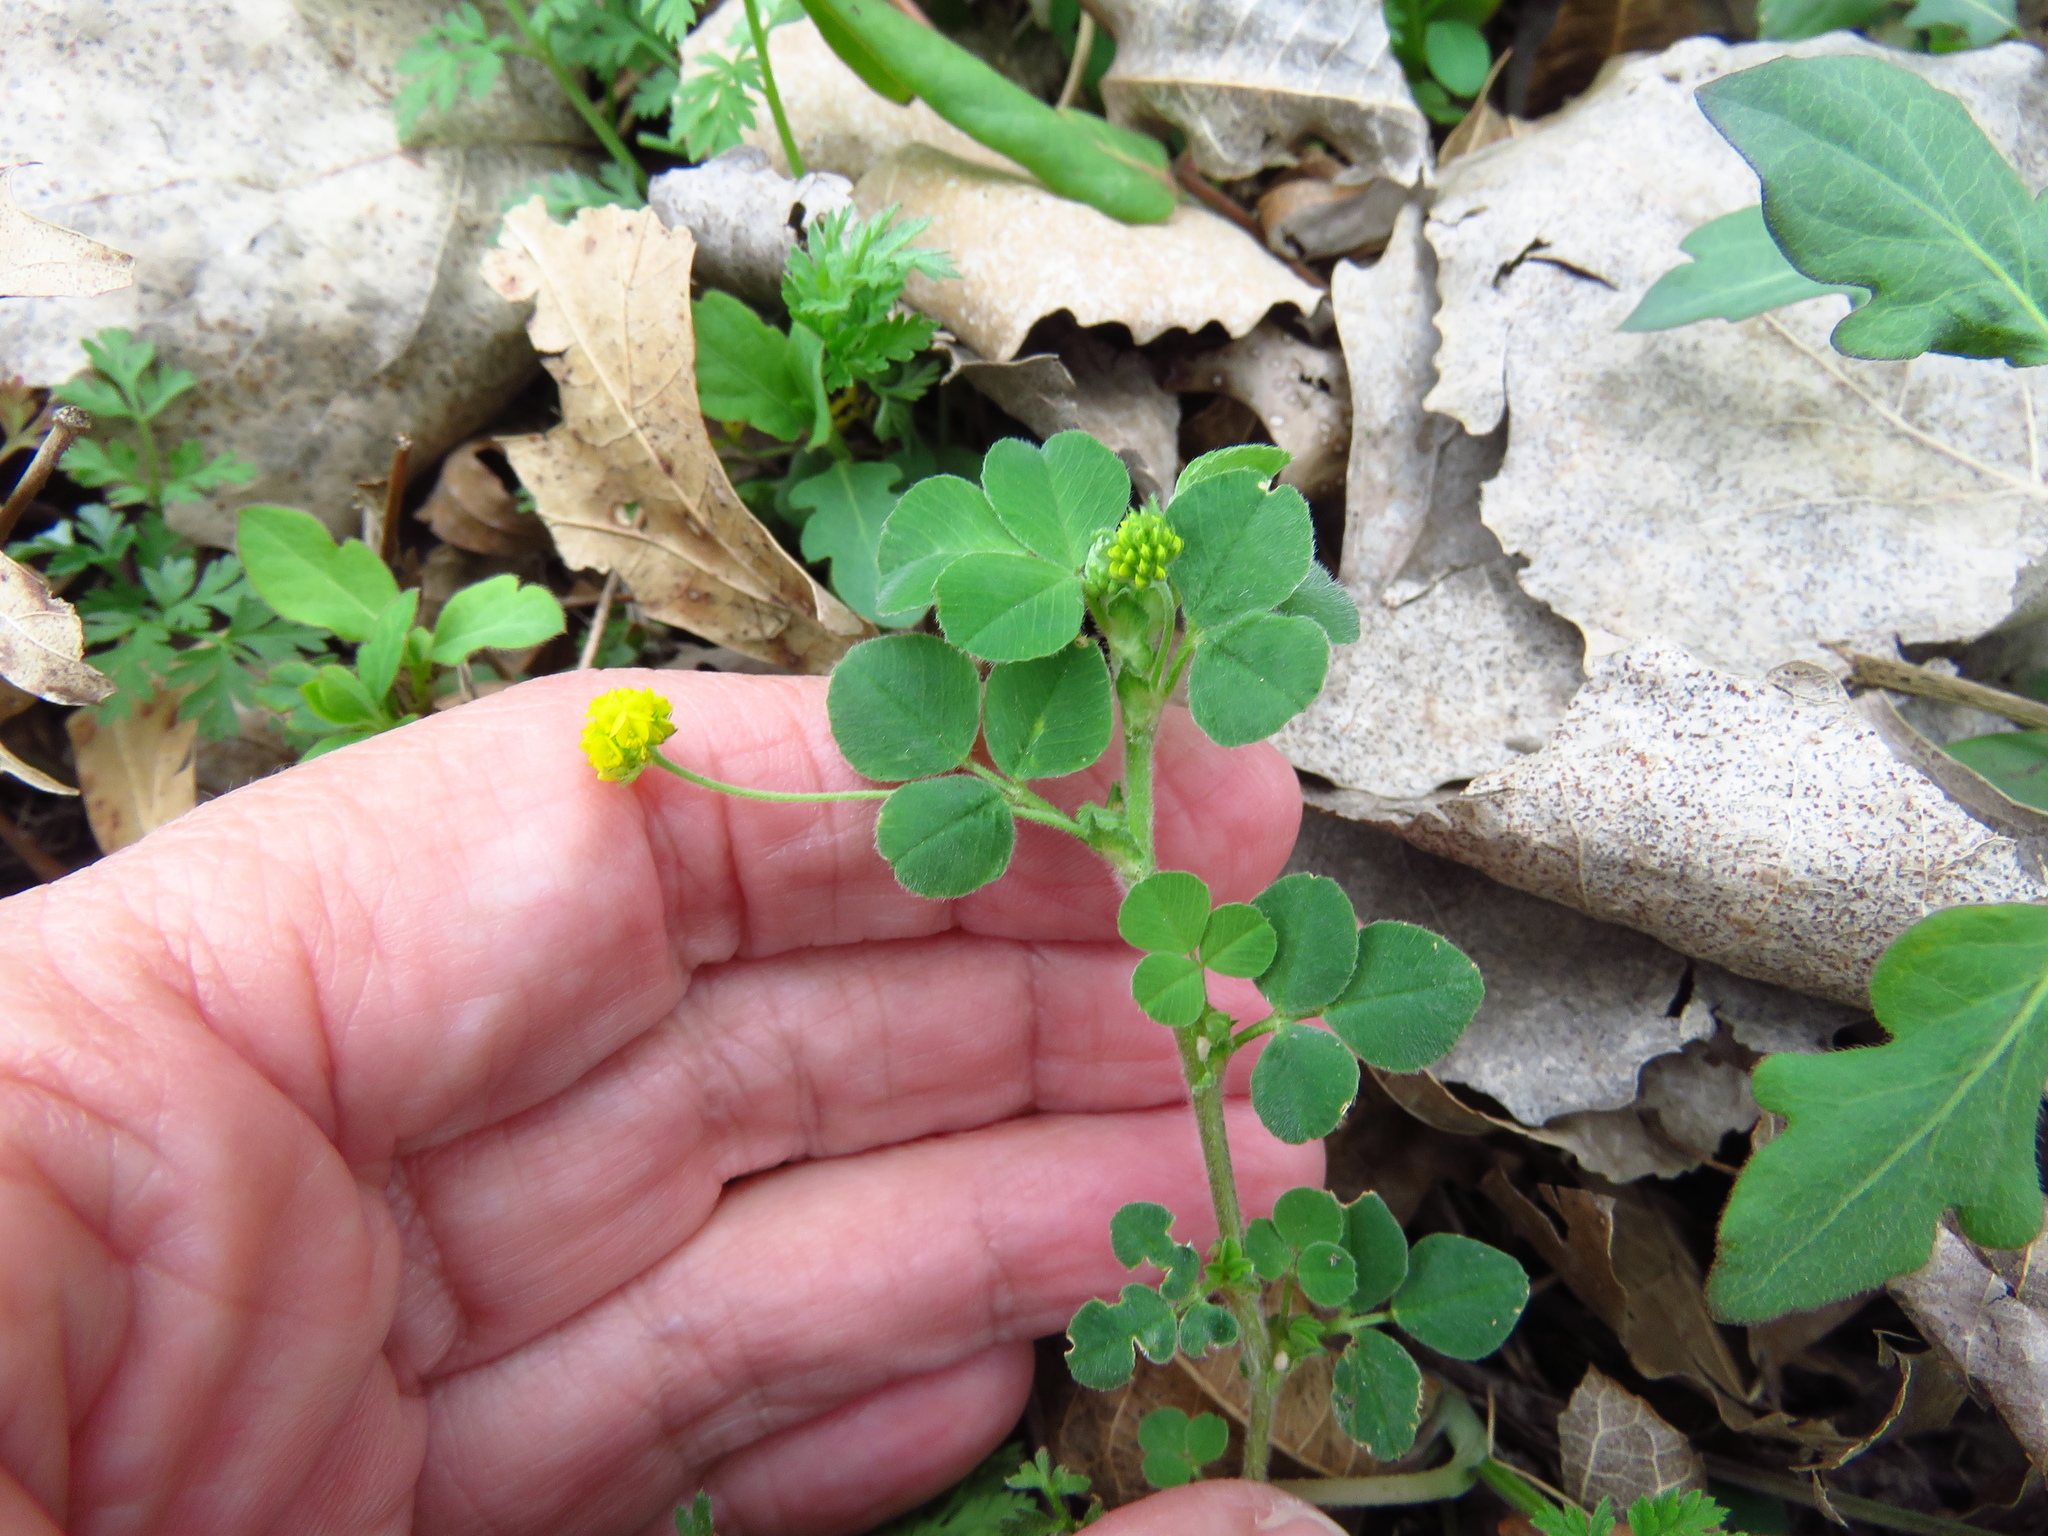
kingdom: Plantae
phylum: Tracheophyta
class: Magnoliopsida
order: Fabales
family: Fabaceae
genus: Medicago
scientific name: Medicago lupulina
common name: Black medick
